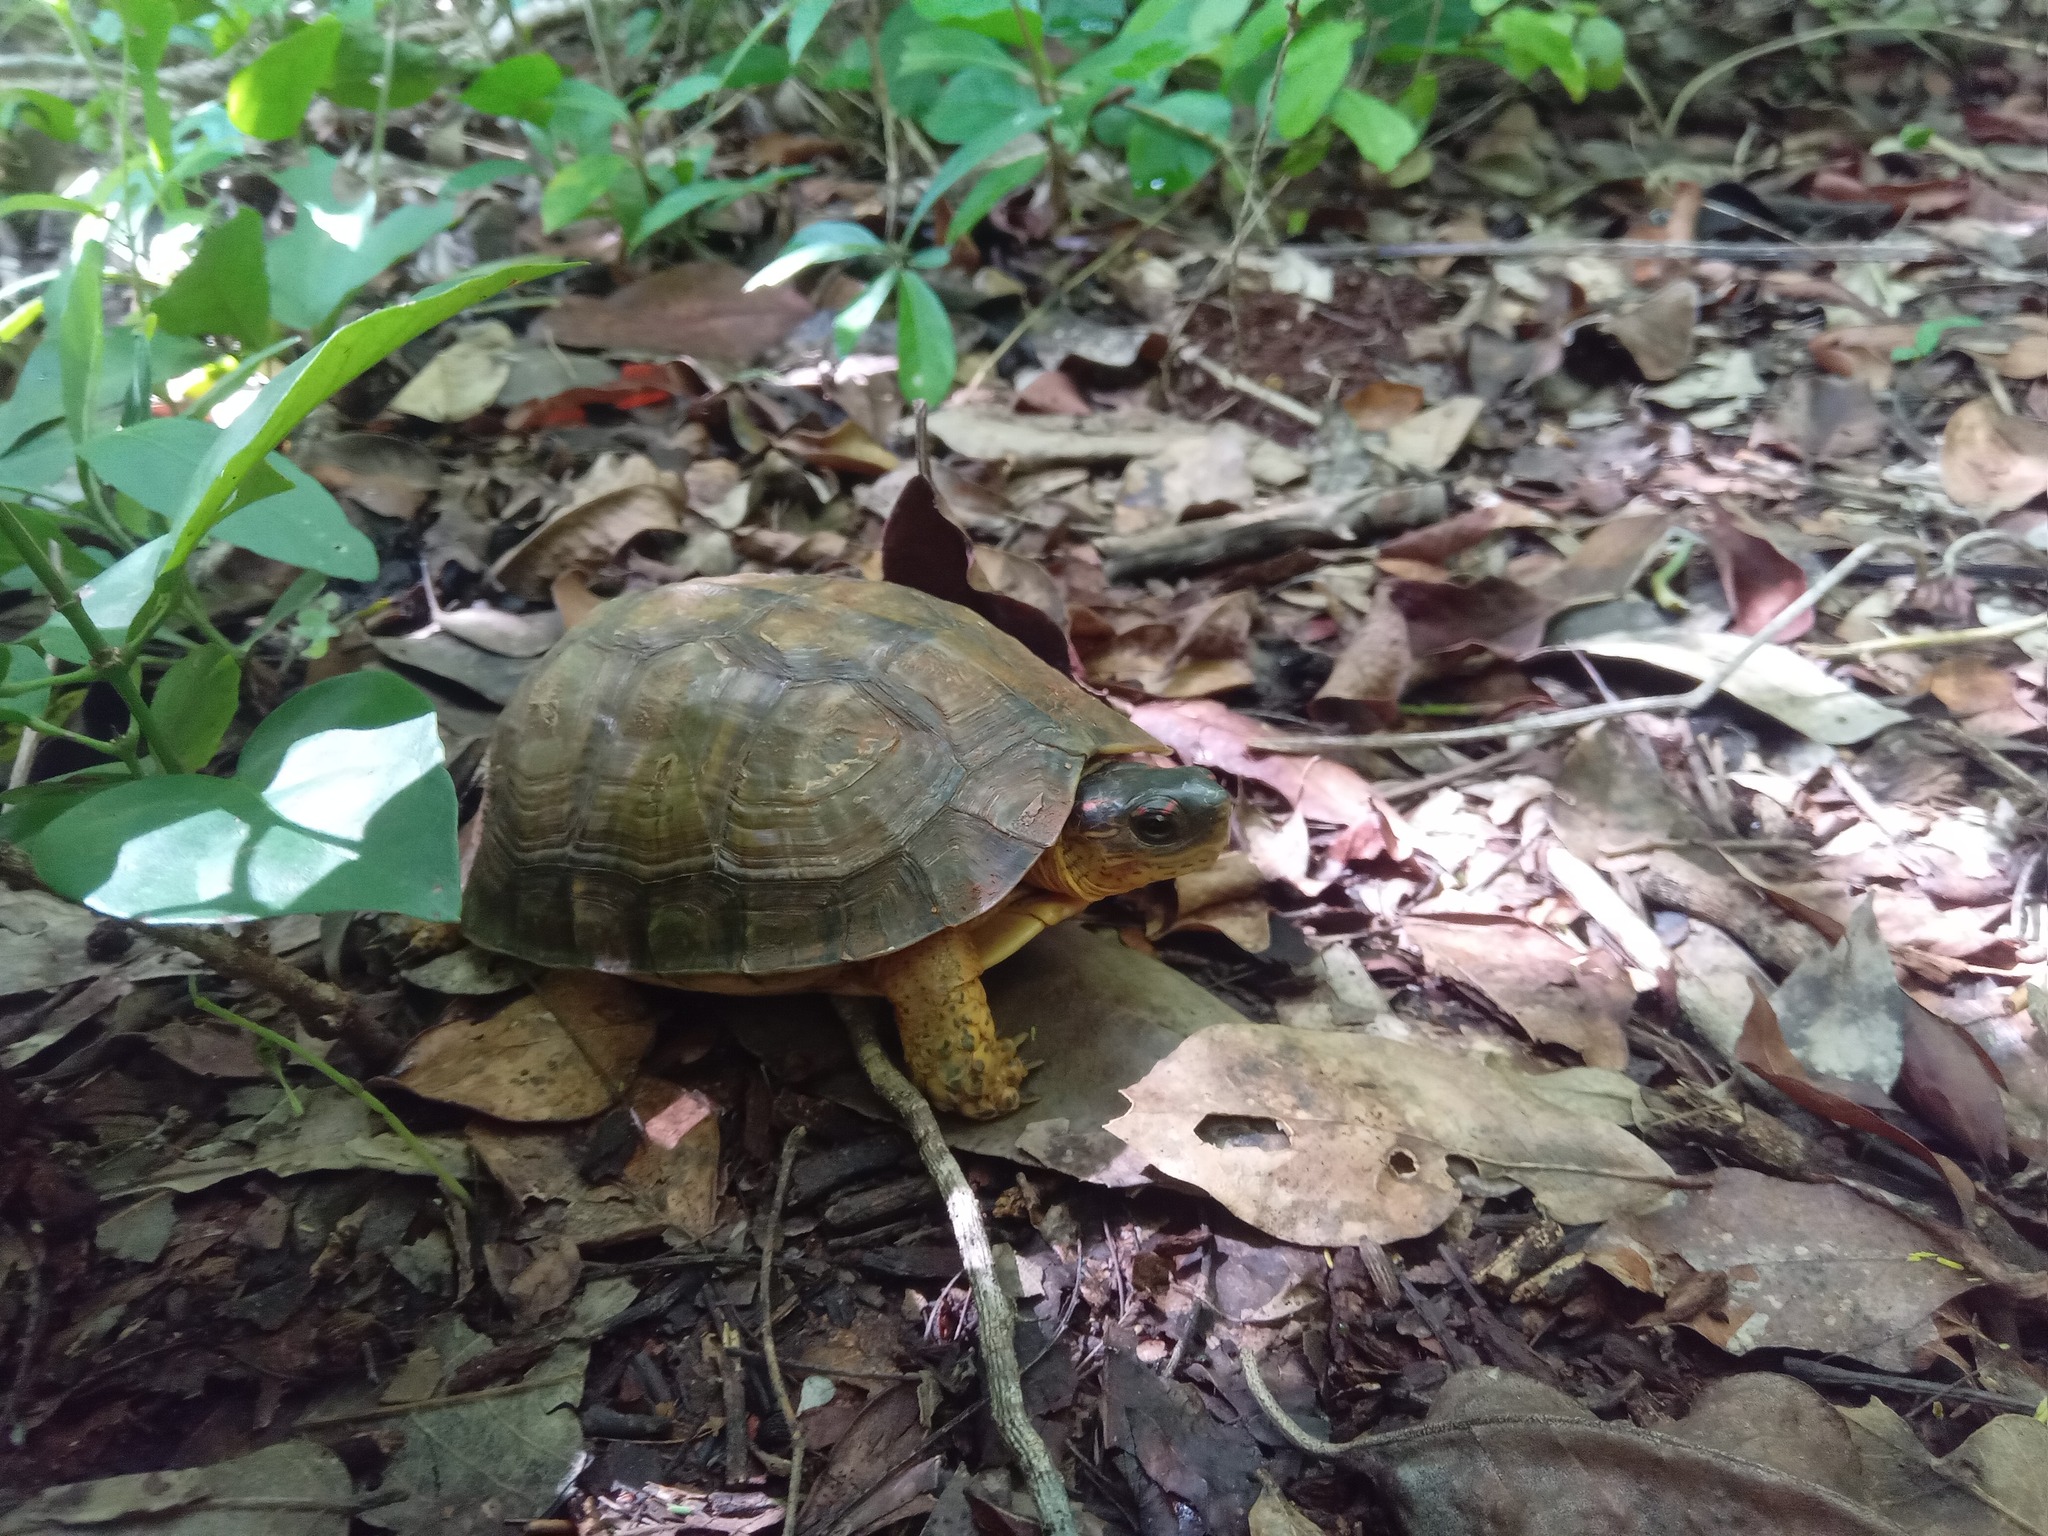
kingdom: Animalia
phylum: Chordata
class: Testudines
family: Geoemydidae
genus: Rhinoclemmys
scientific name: Rhinoclemmys areolata
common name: Furrowed wood turtle
